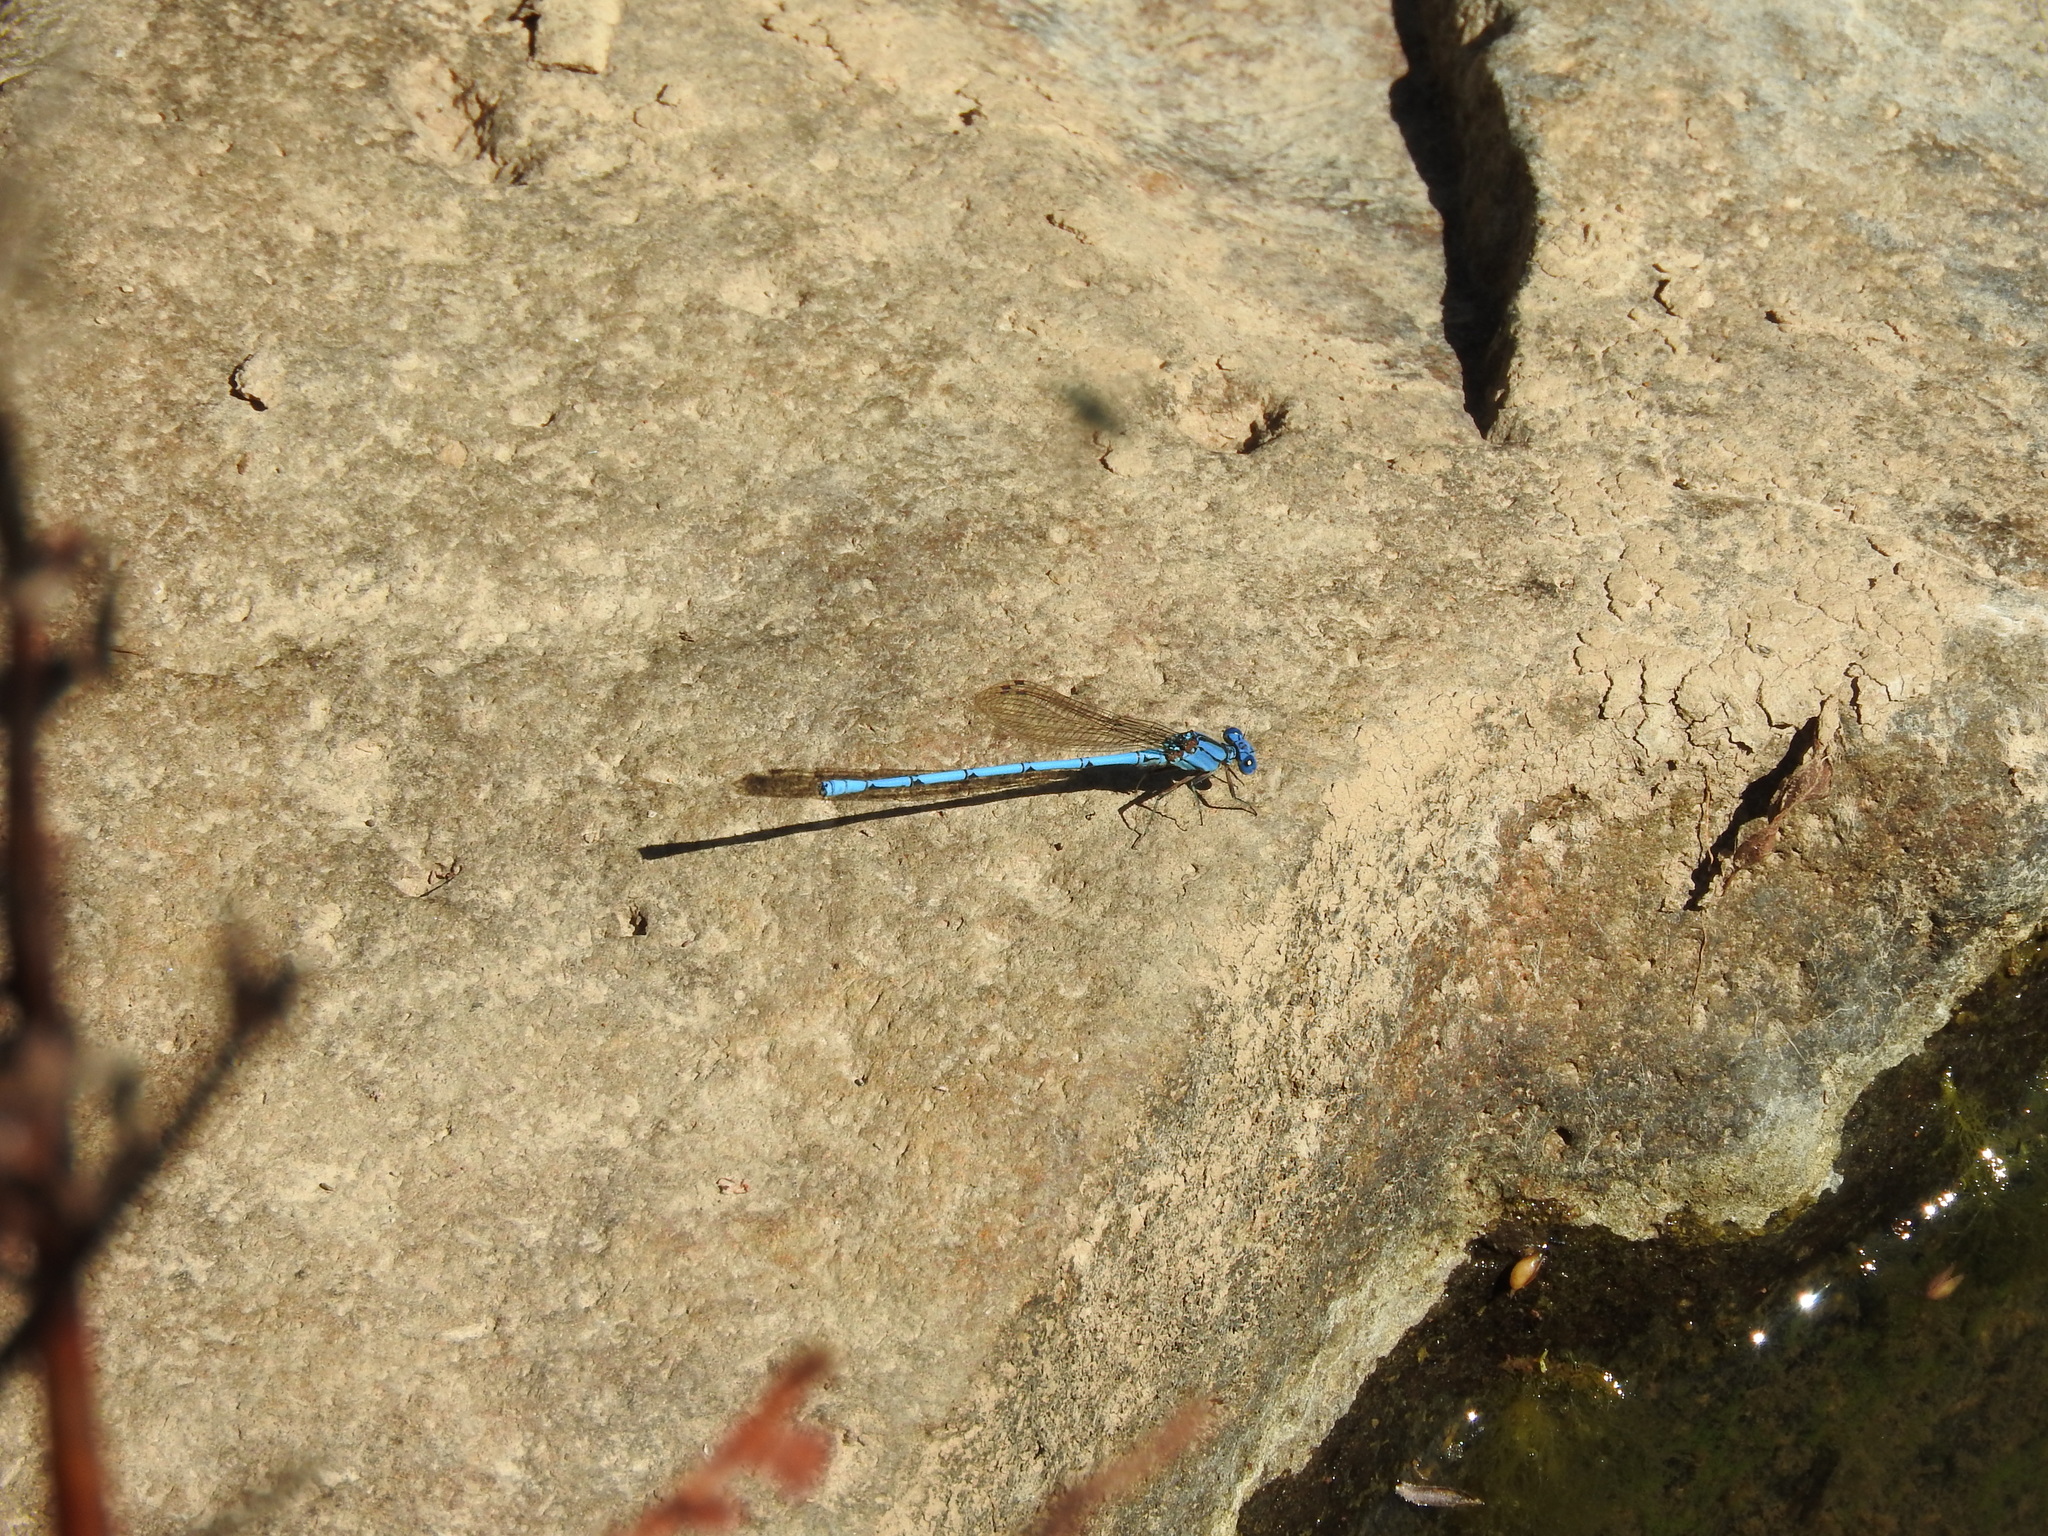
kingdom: Animalia
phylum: Arthropoda
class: Insecta
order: Odonata
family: Coenagrionidae
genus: Argia
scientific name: Argia anceps
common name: Cerulean dancer
